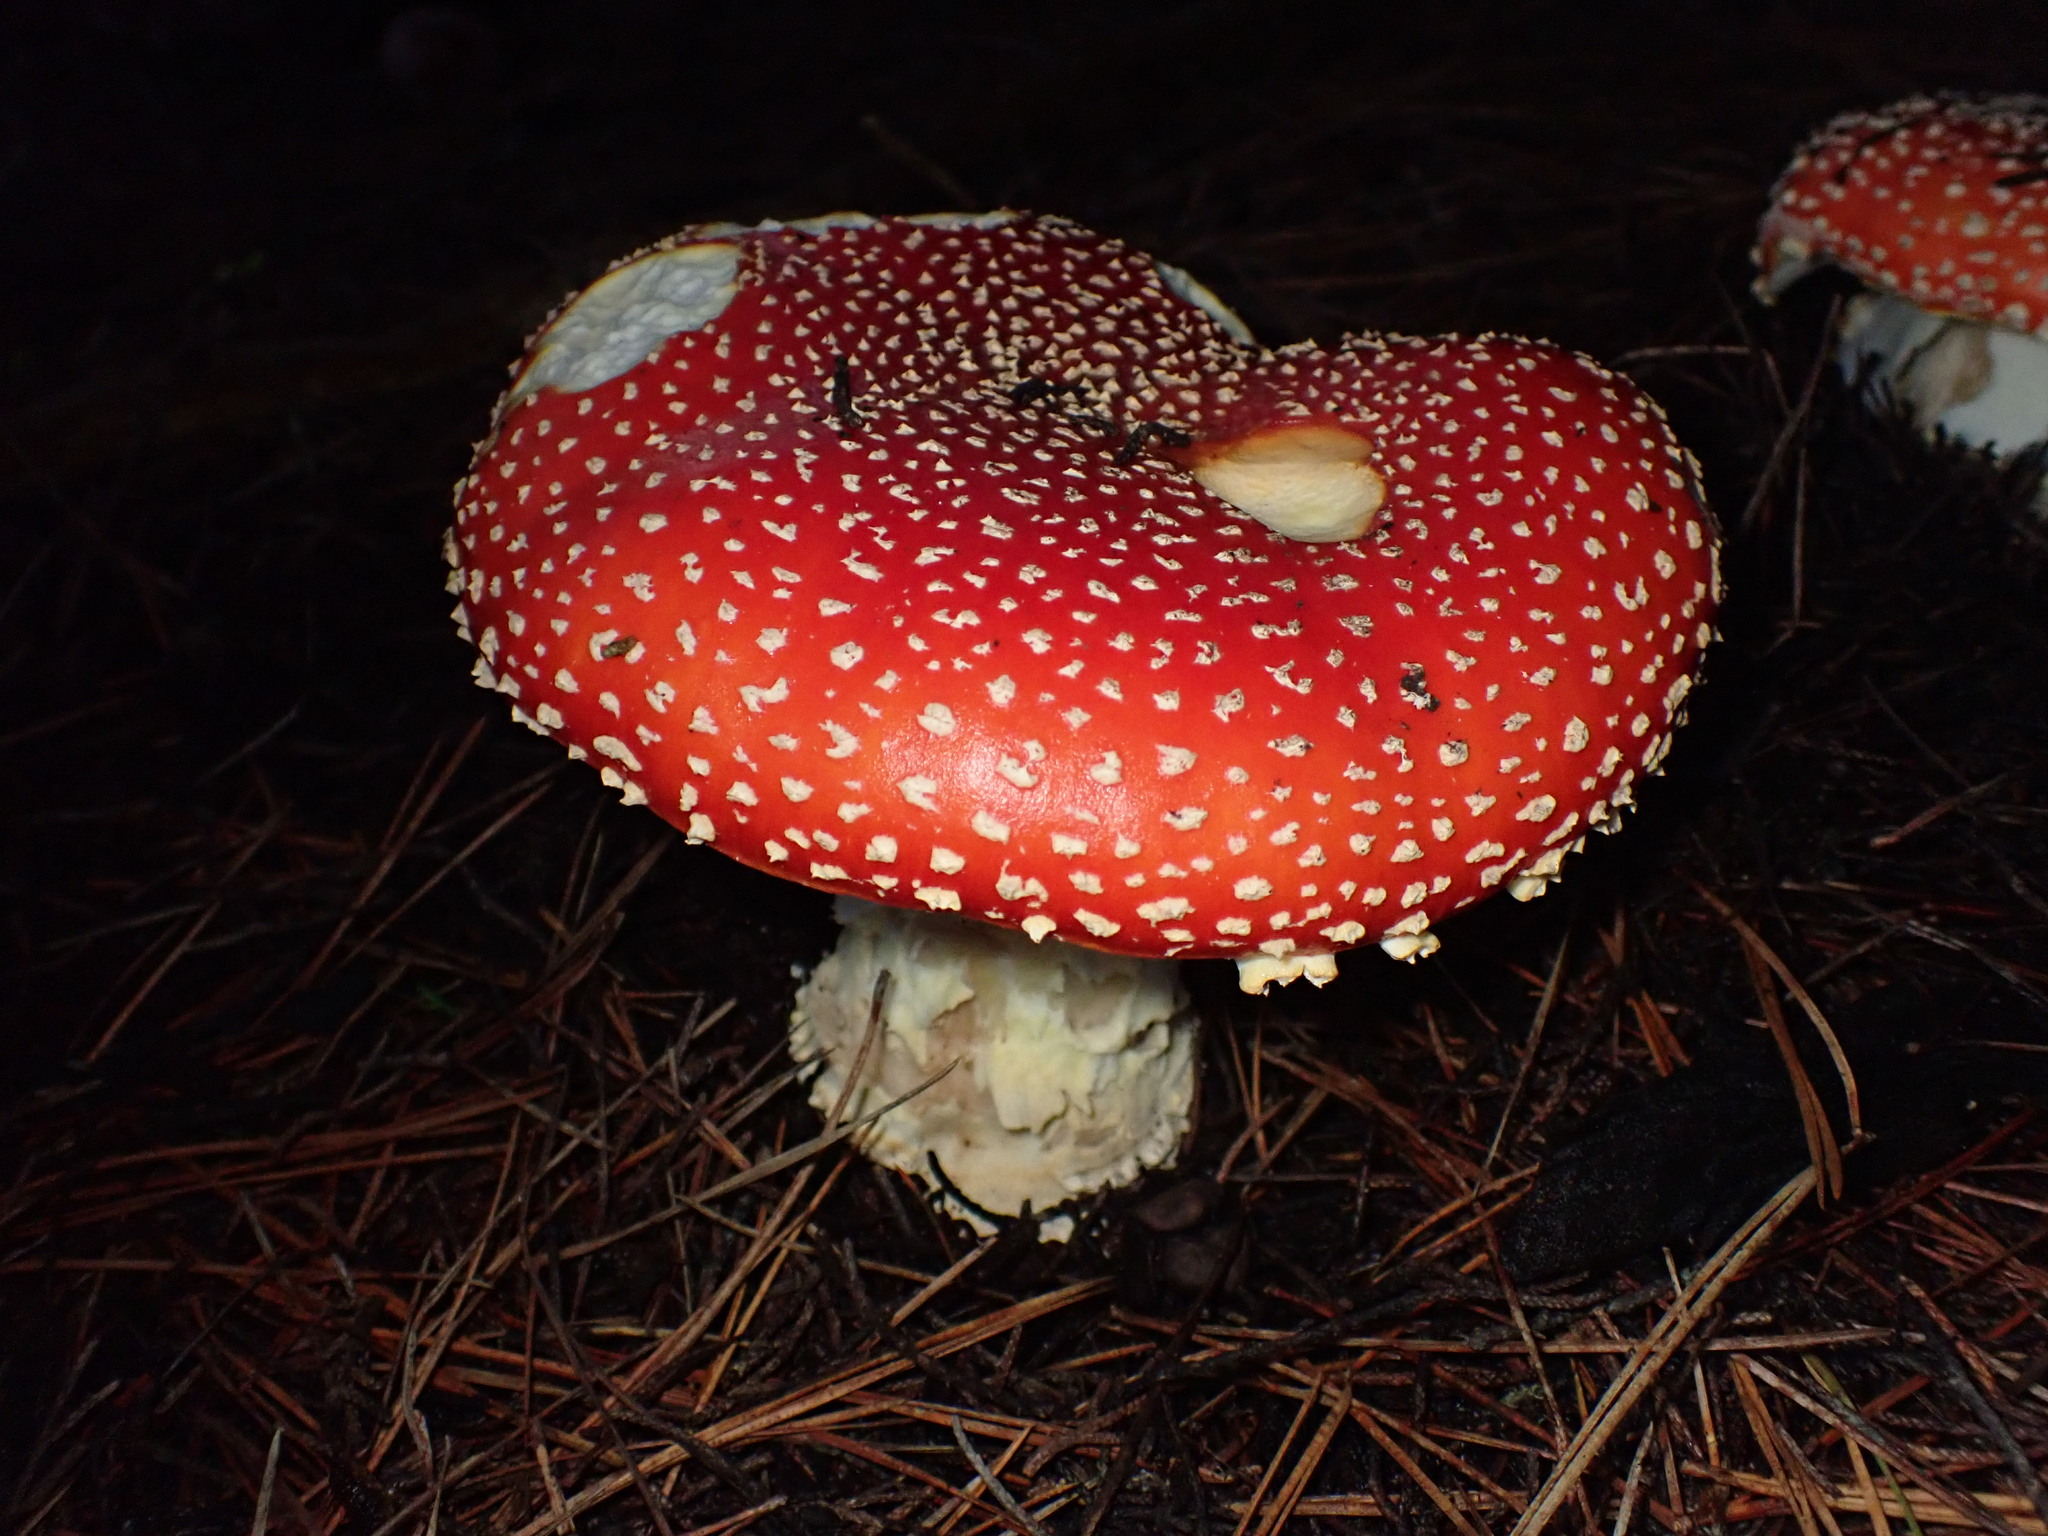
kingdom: Fungi
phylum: Basidiomycota
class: Agaricomycetes
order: Agaricales
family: Amanitaceae
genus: Amanita
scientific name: Amanita muscaria
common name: Fly agaric
